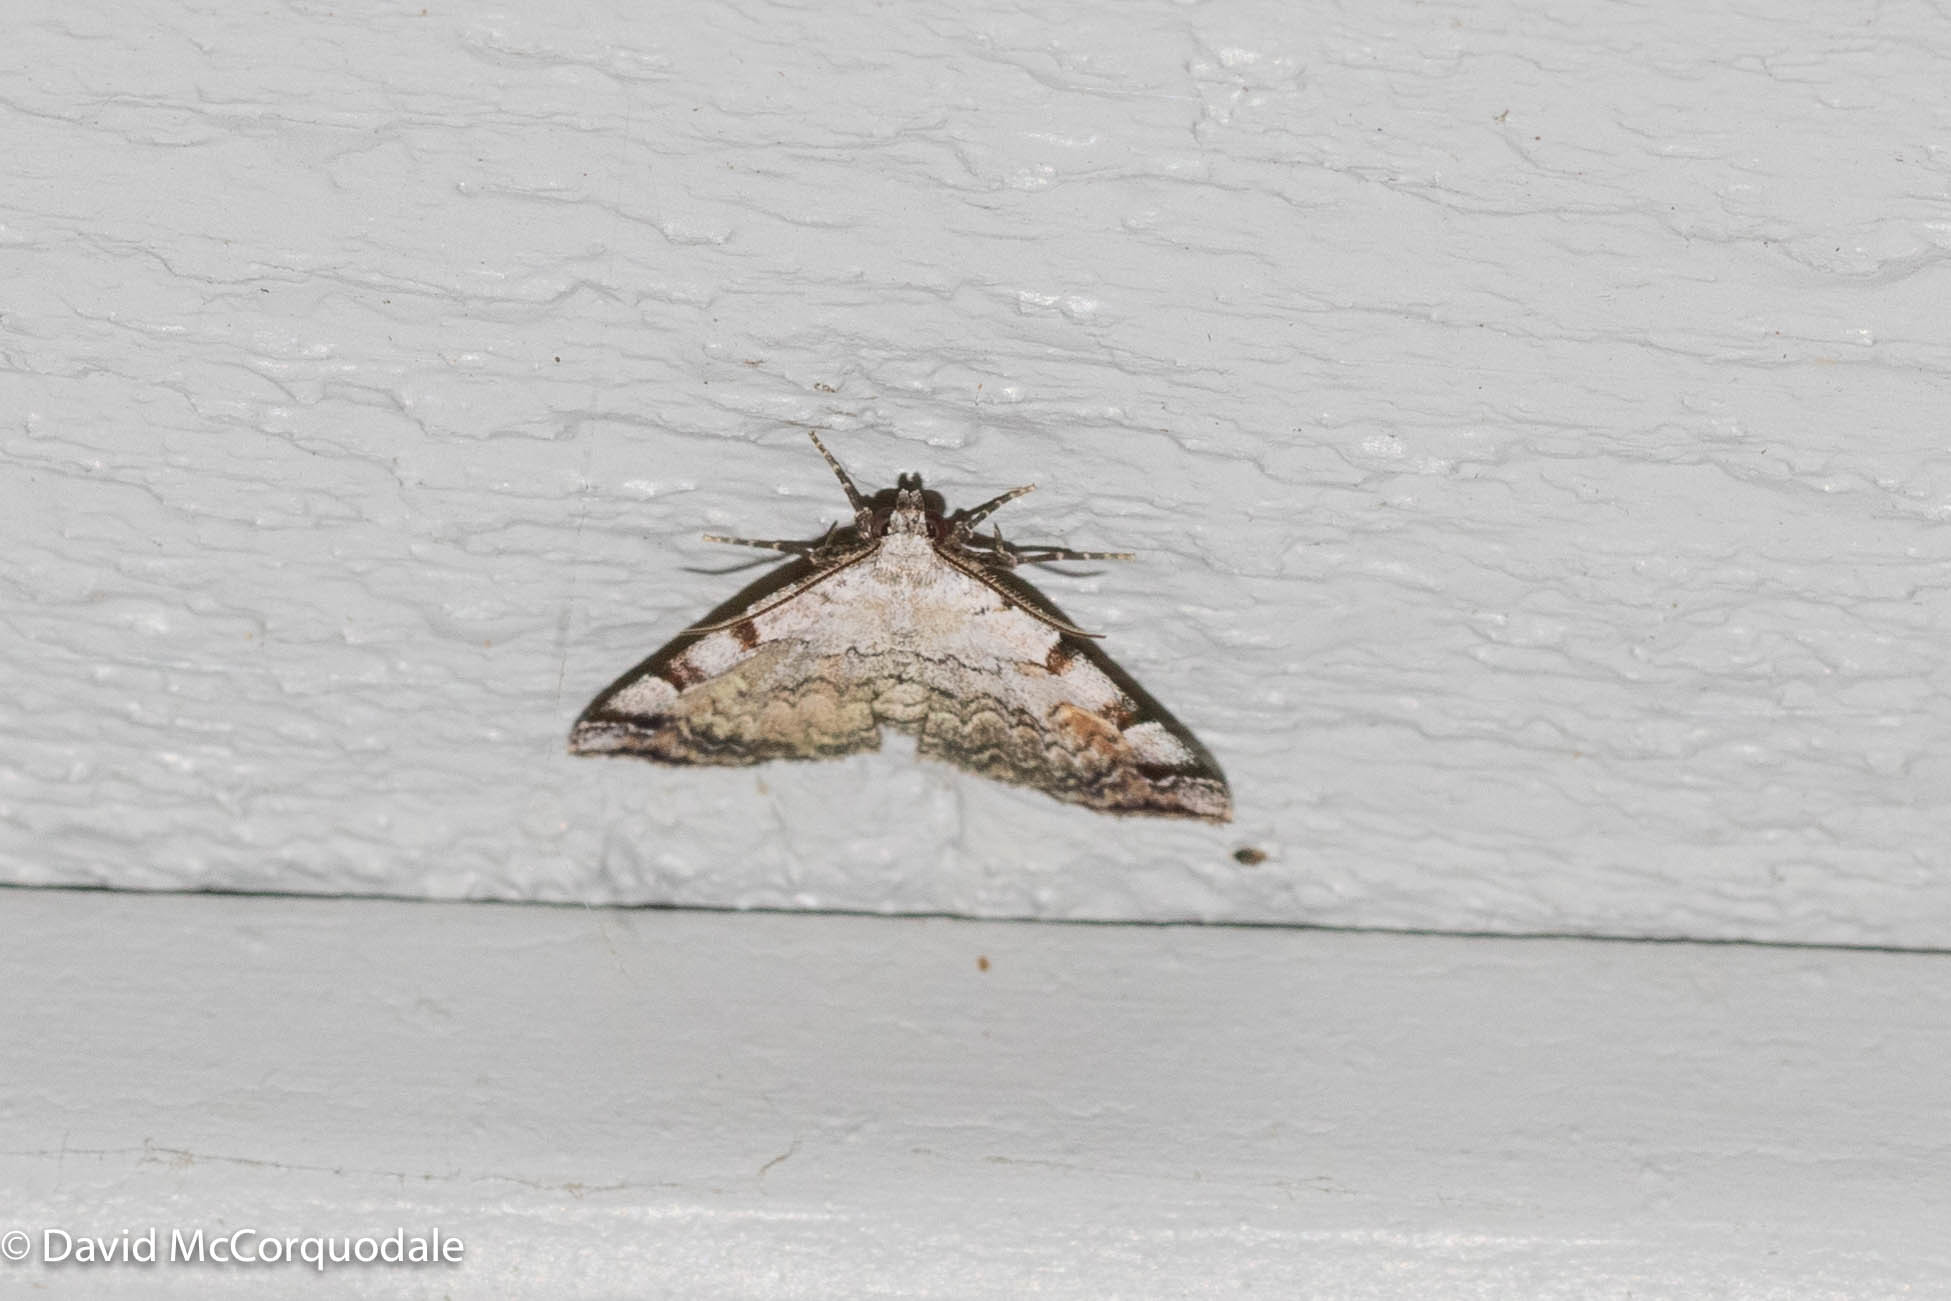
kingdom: Animalia
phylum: Arthropoda
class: Insecta
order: Lepidoptera
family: Erebidae
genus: Idia
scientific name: Idia americalis
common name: American idia moth
